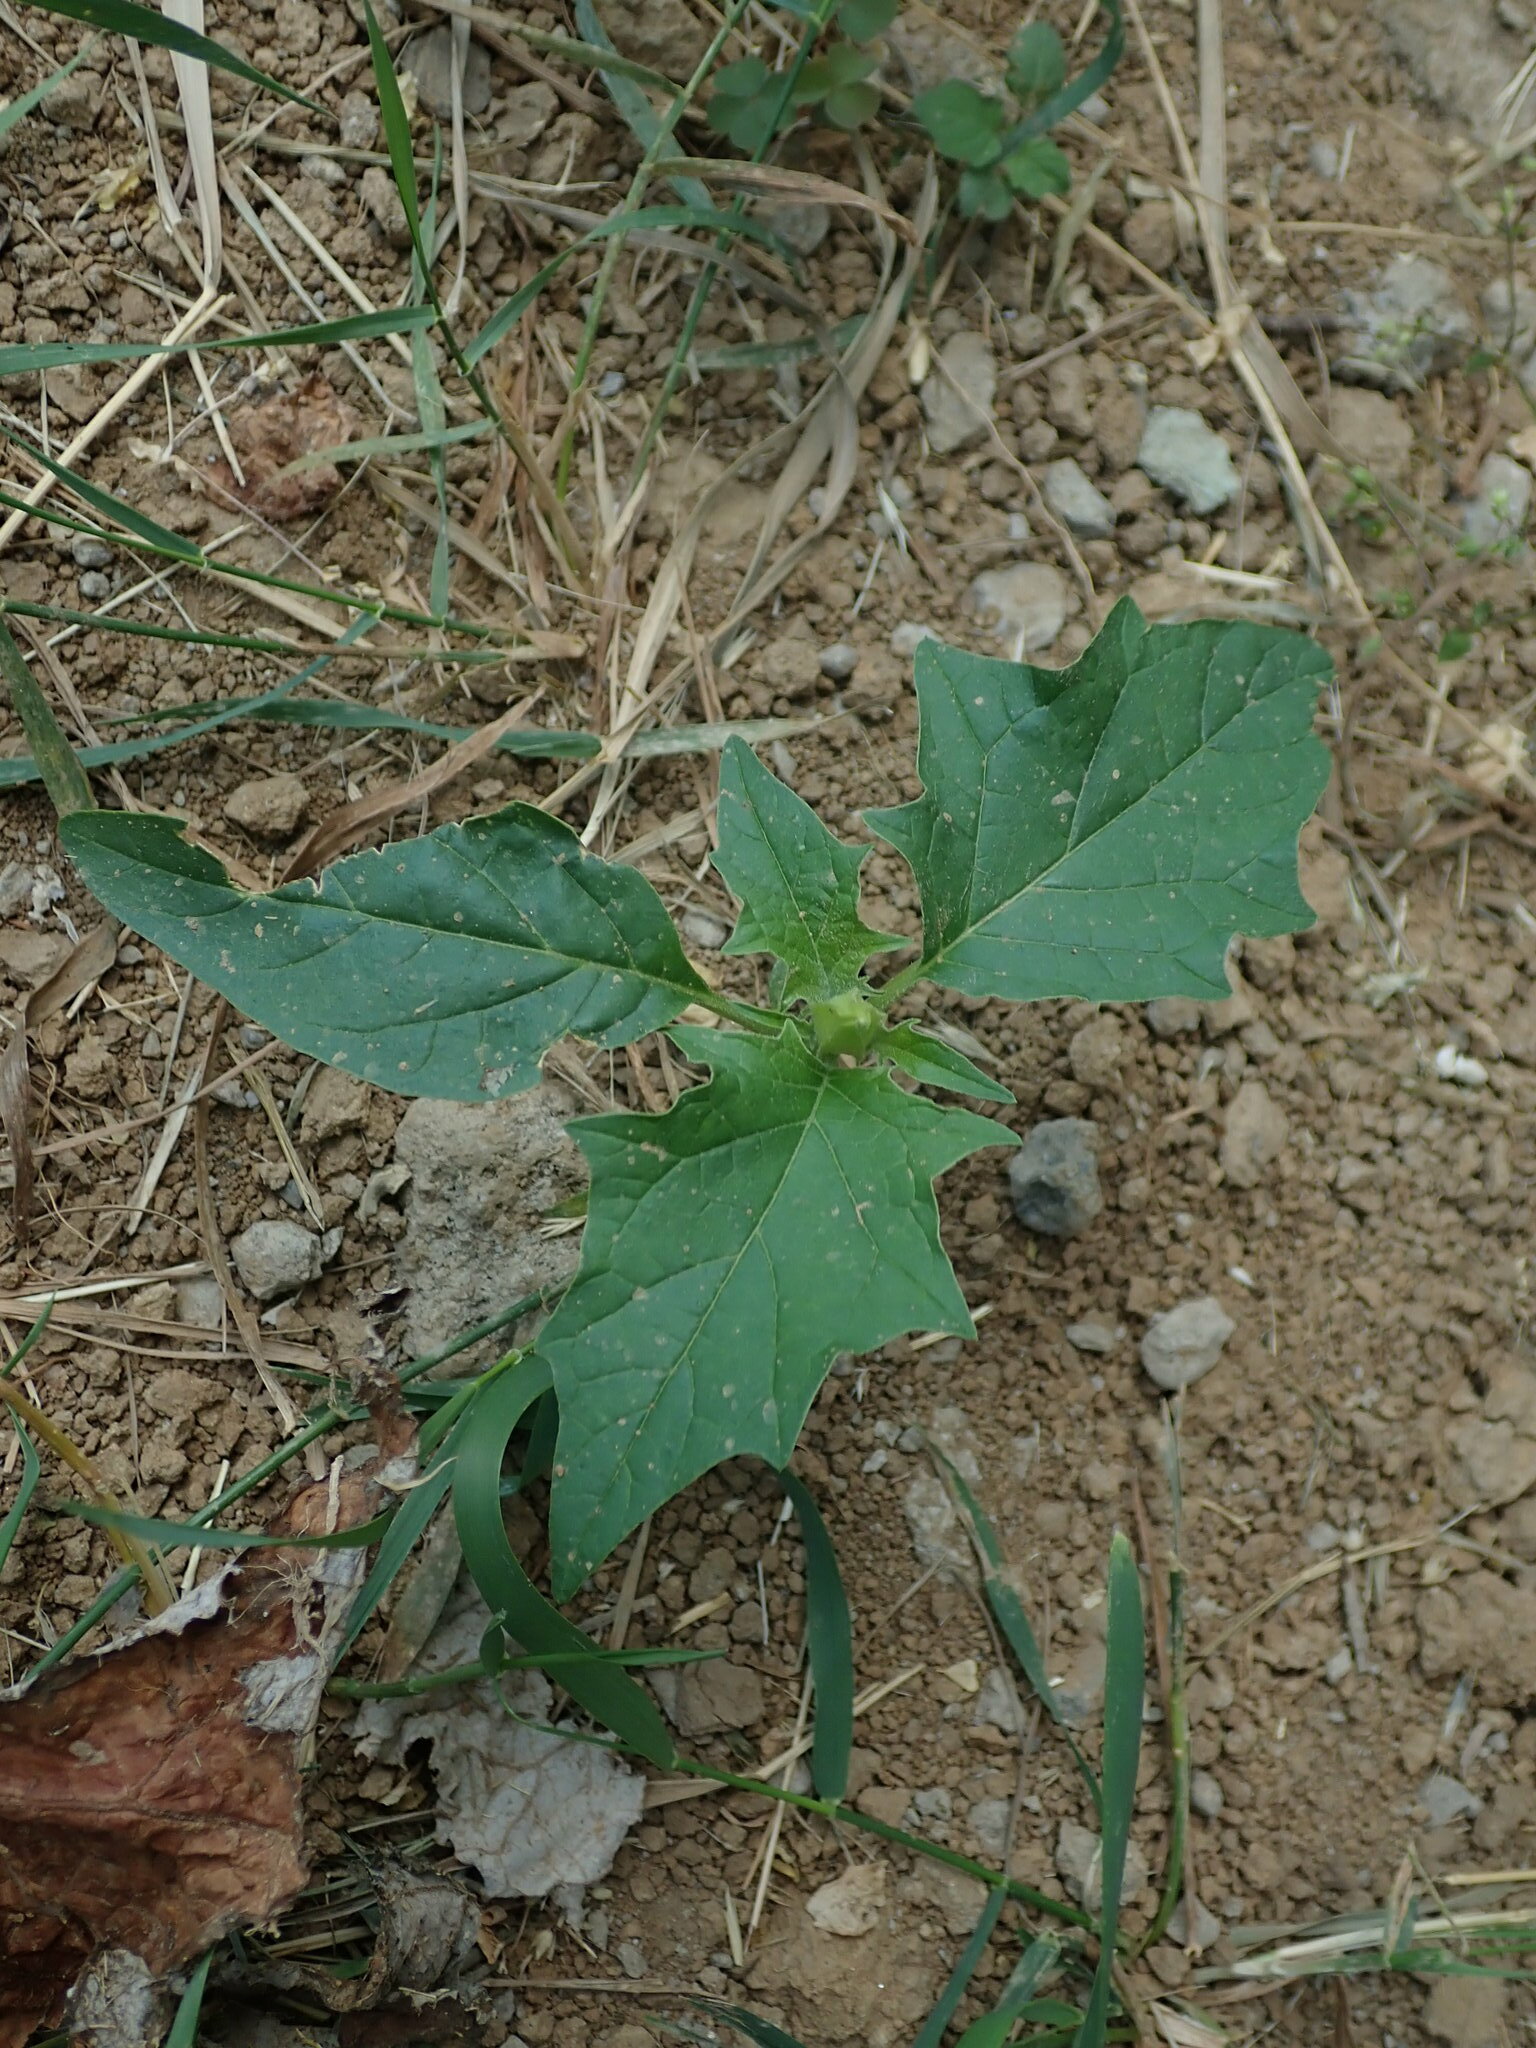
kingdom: Plantae
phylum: Tracheophyta
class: Magnoliopsida
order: Solanales
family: Solanaceae
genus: Datura
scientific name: Datura stramonium
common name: Thorn-apple
